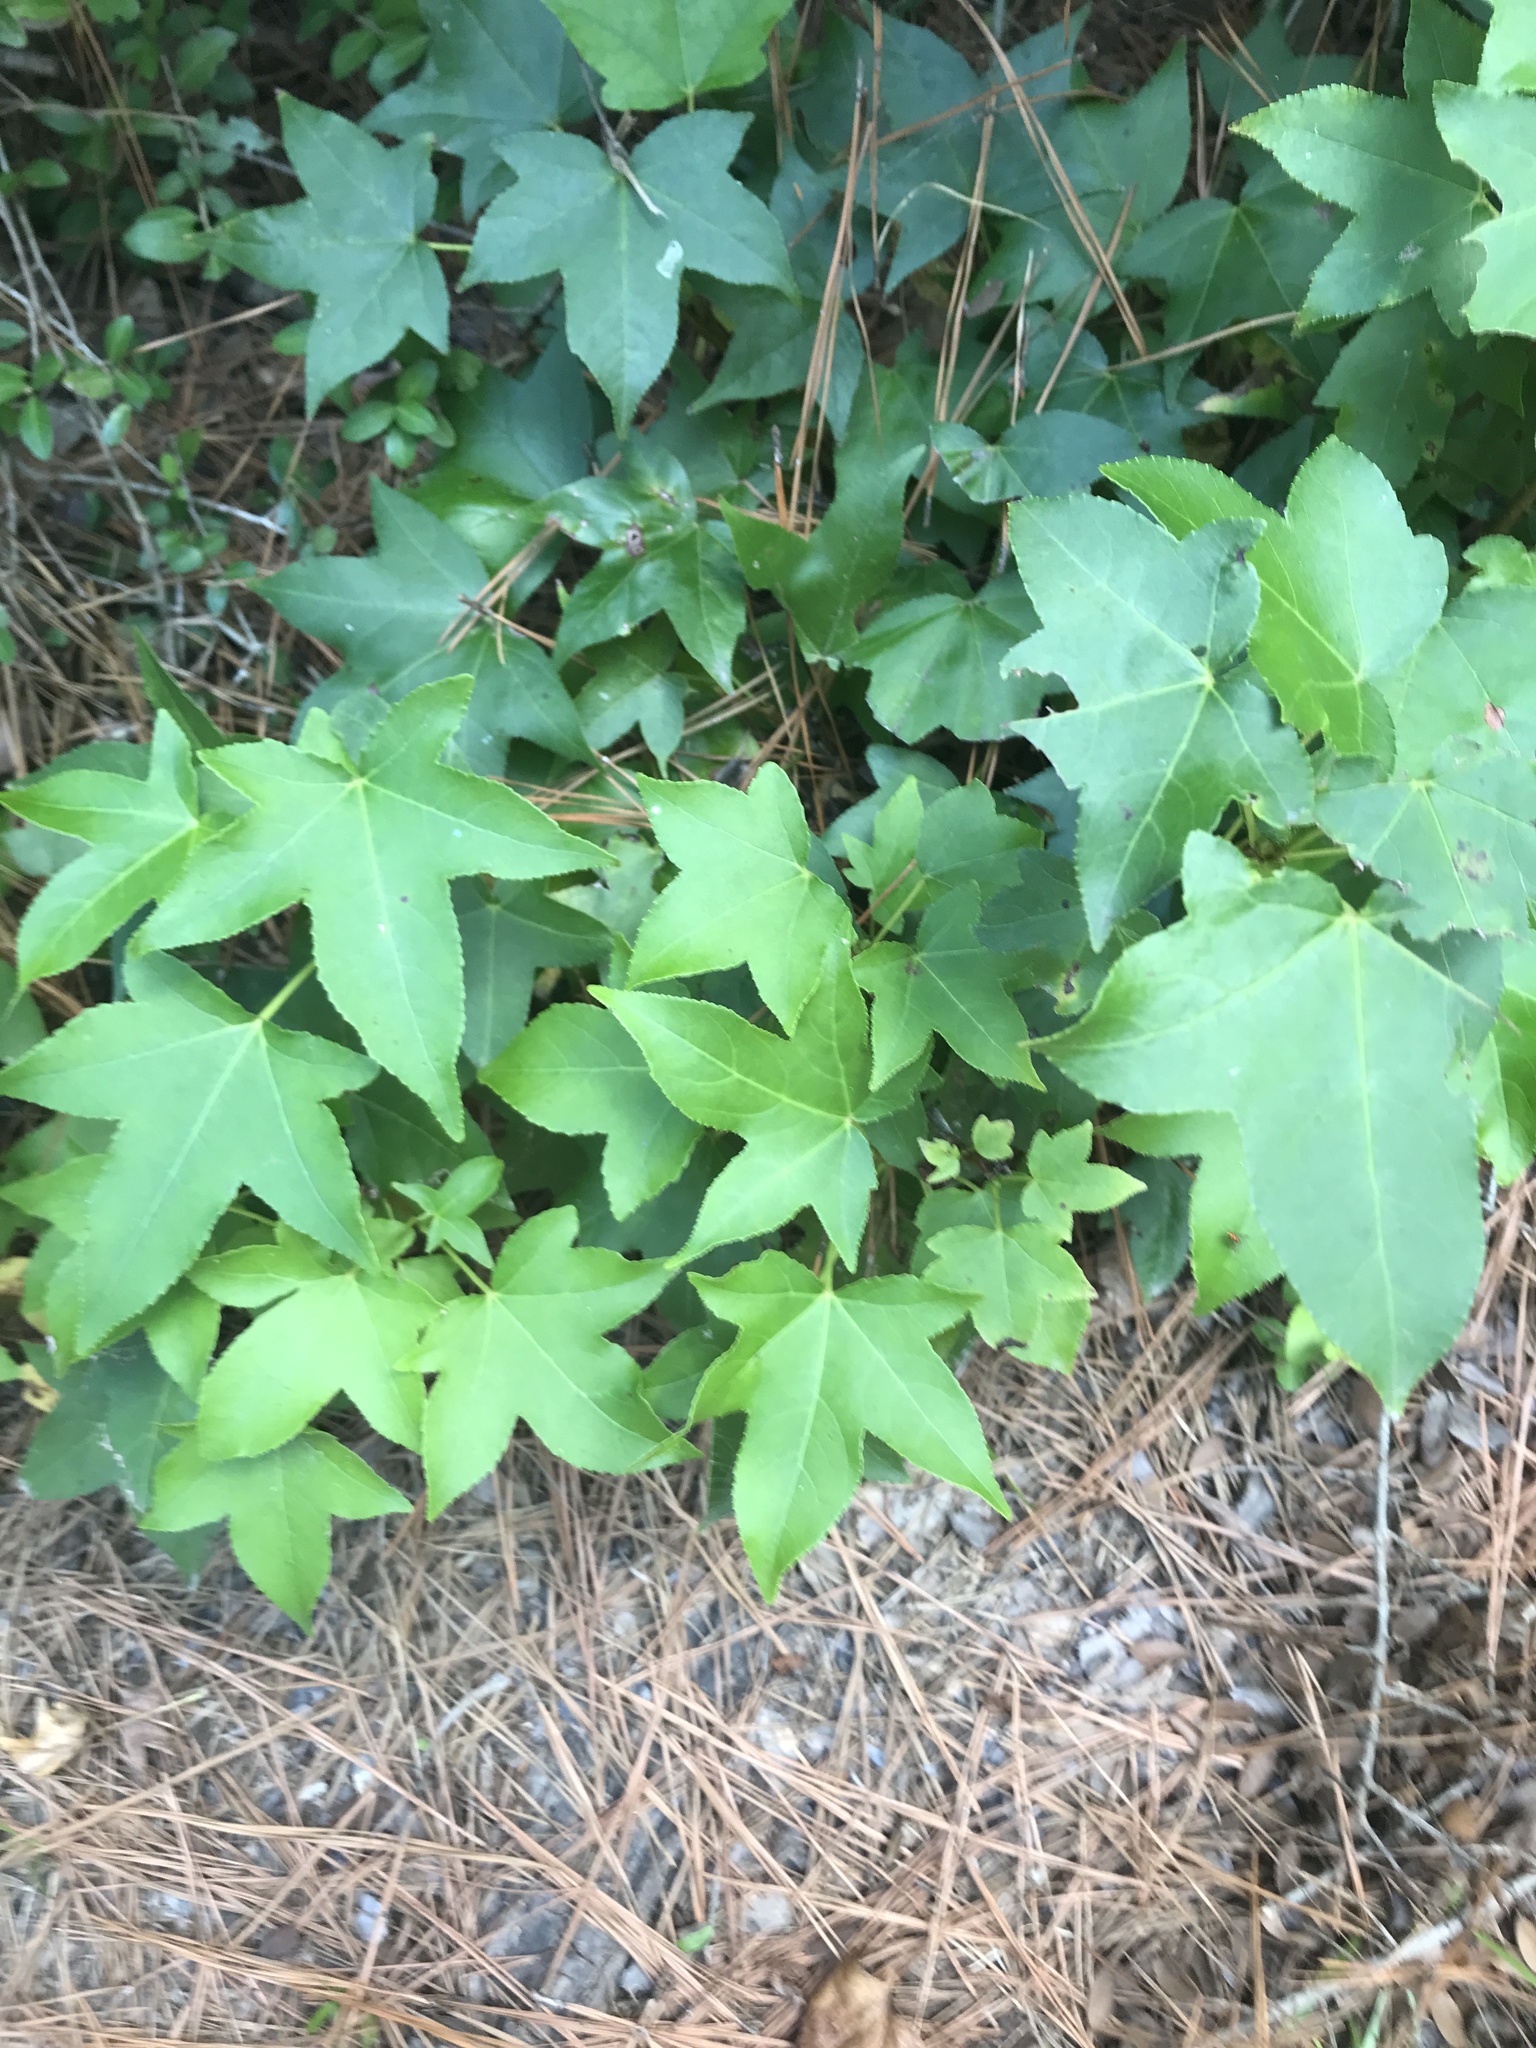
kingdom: Plantae
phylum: Tracheophyta
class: Magnoliopsida
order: Saxifragales
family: Altingiaceae
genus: Liquidambar
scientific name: Liquidambar styraciflua
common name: Sweet gum
